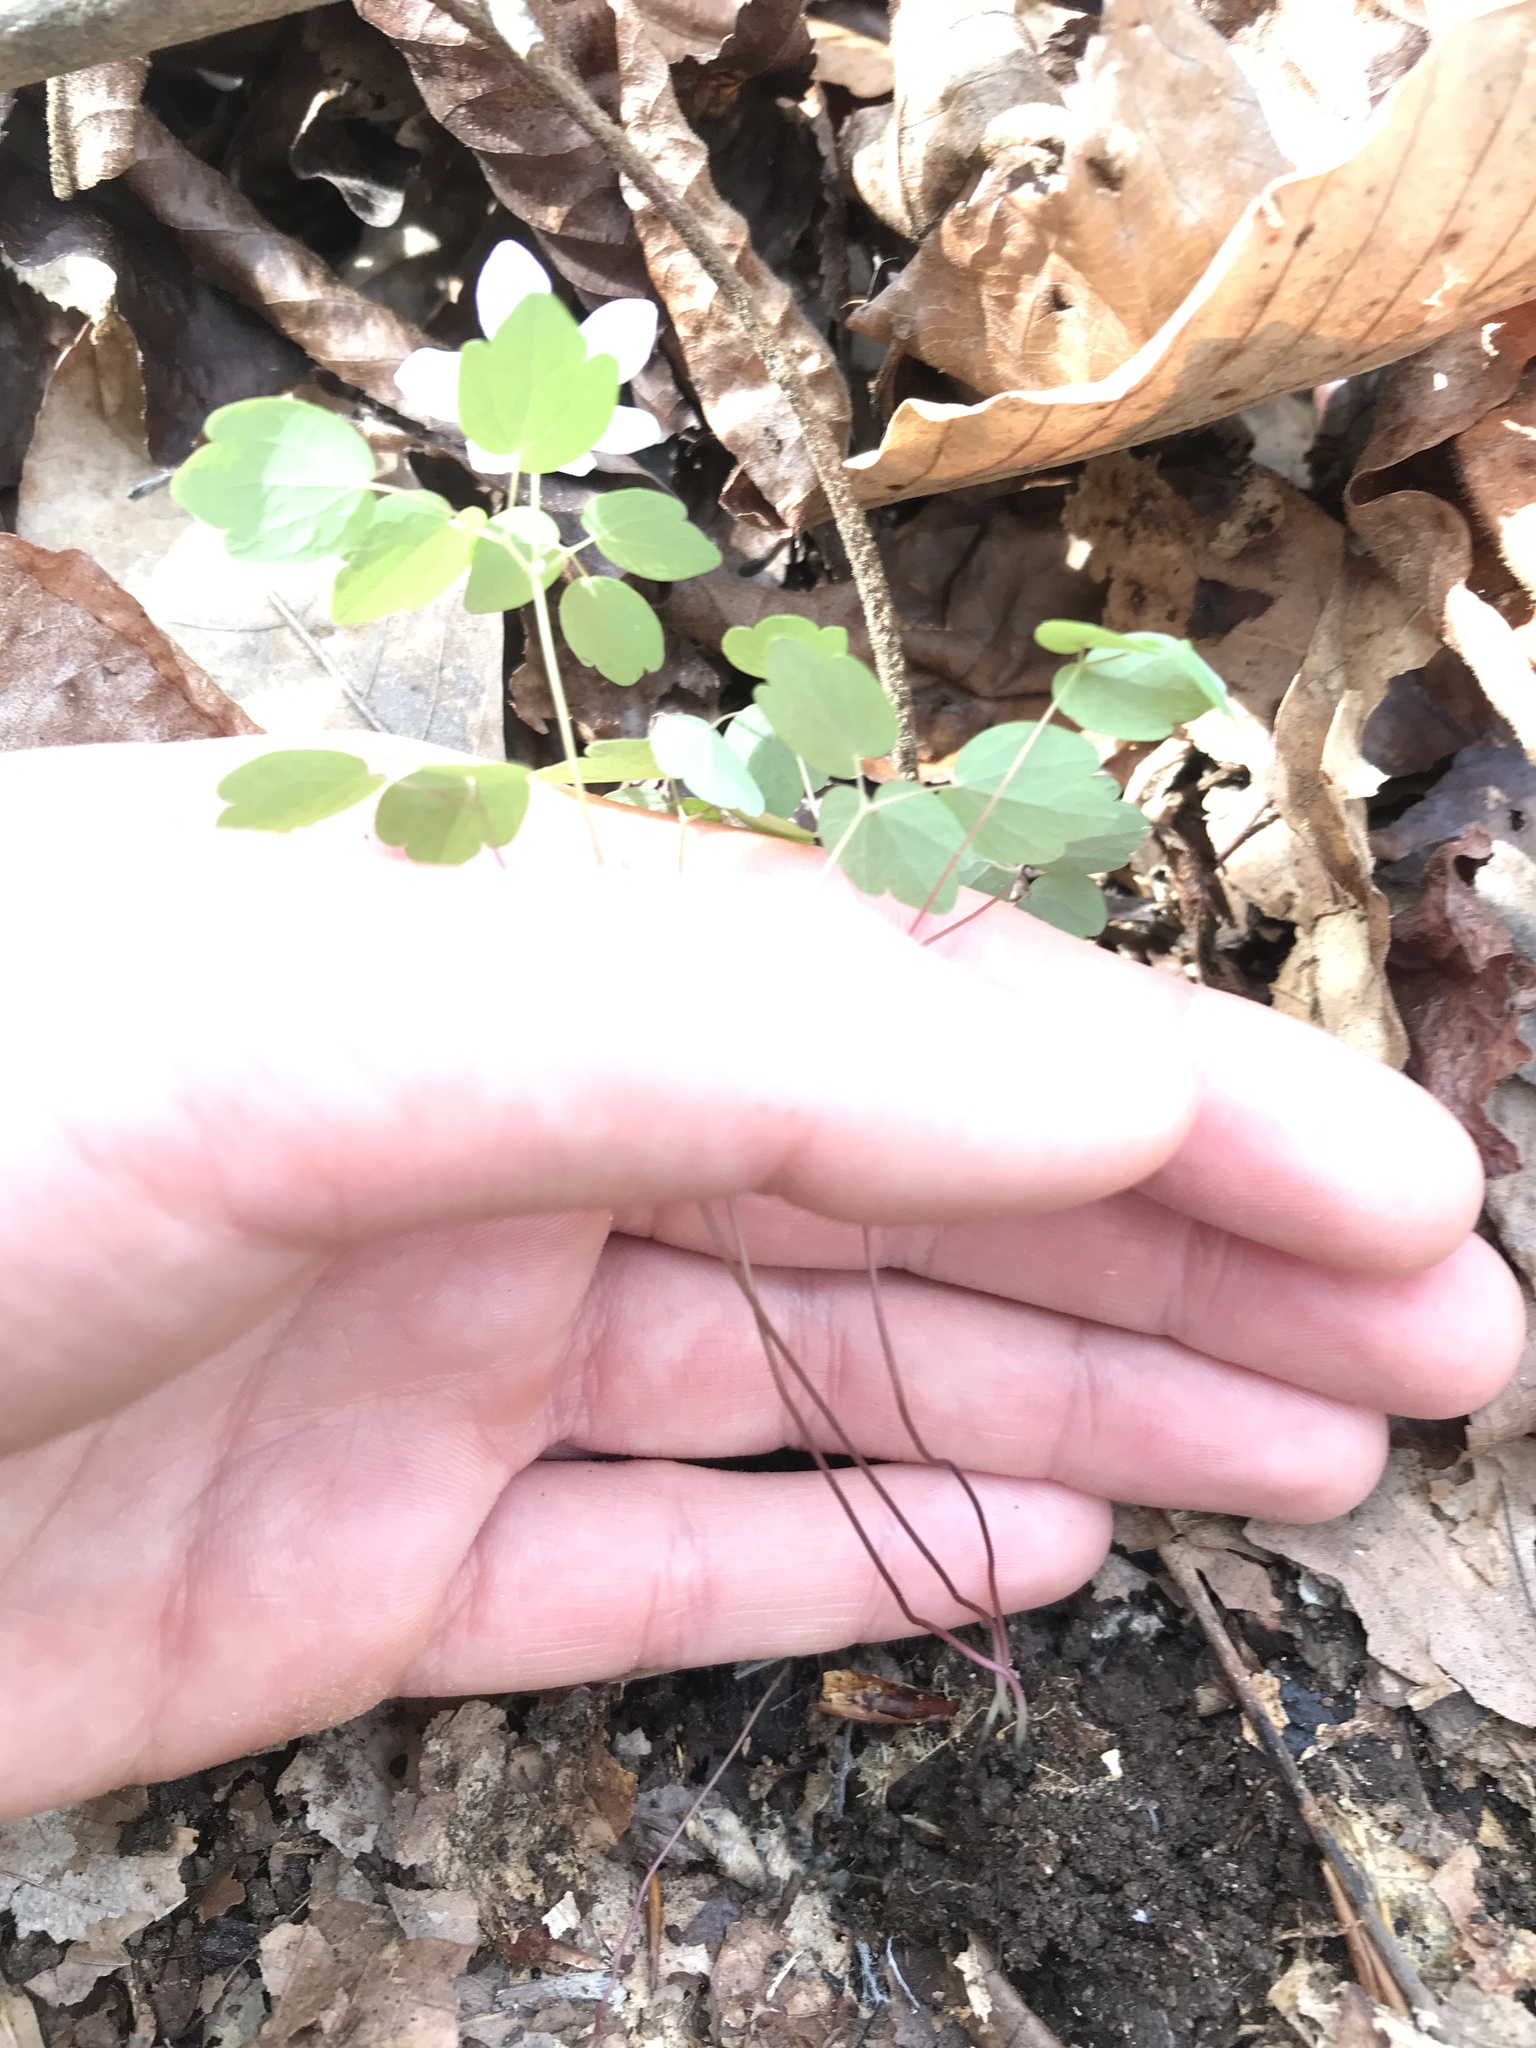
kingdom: Plantae
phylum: Tracheophyta
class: Magnoliopsida
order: Ranunculales
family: Ranunculaceae
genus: Thalictrum
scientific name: Thalictrum thalictroides
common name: Rue-anemone
